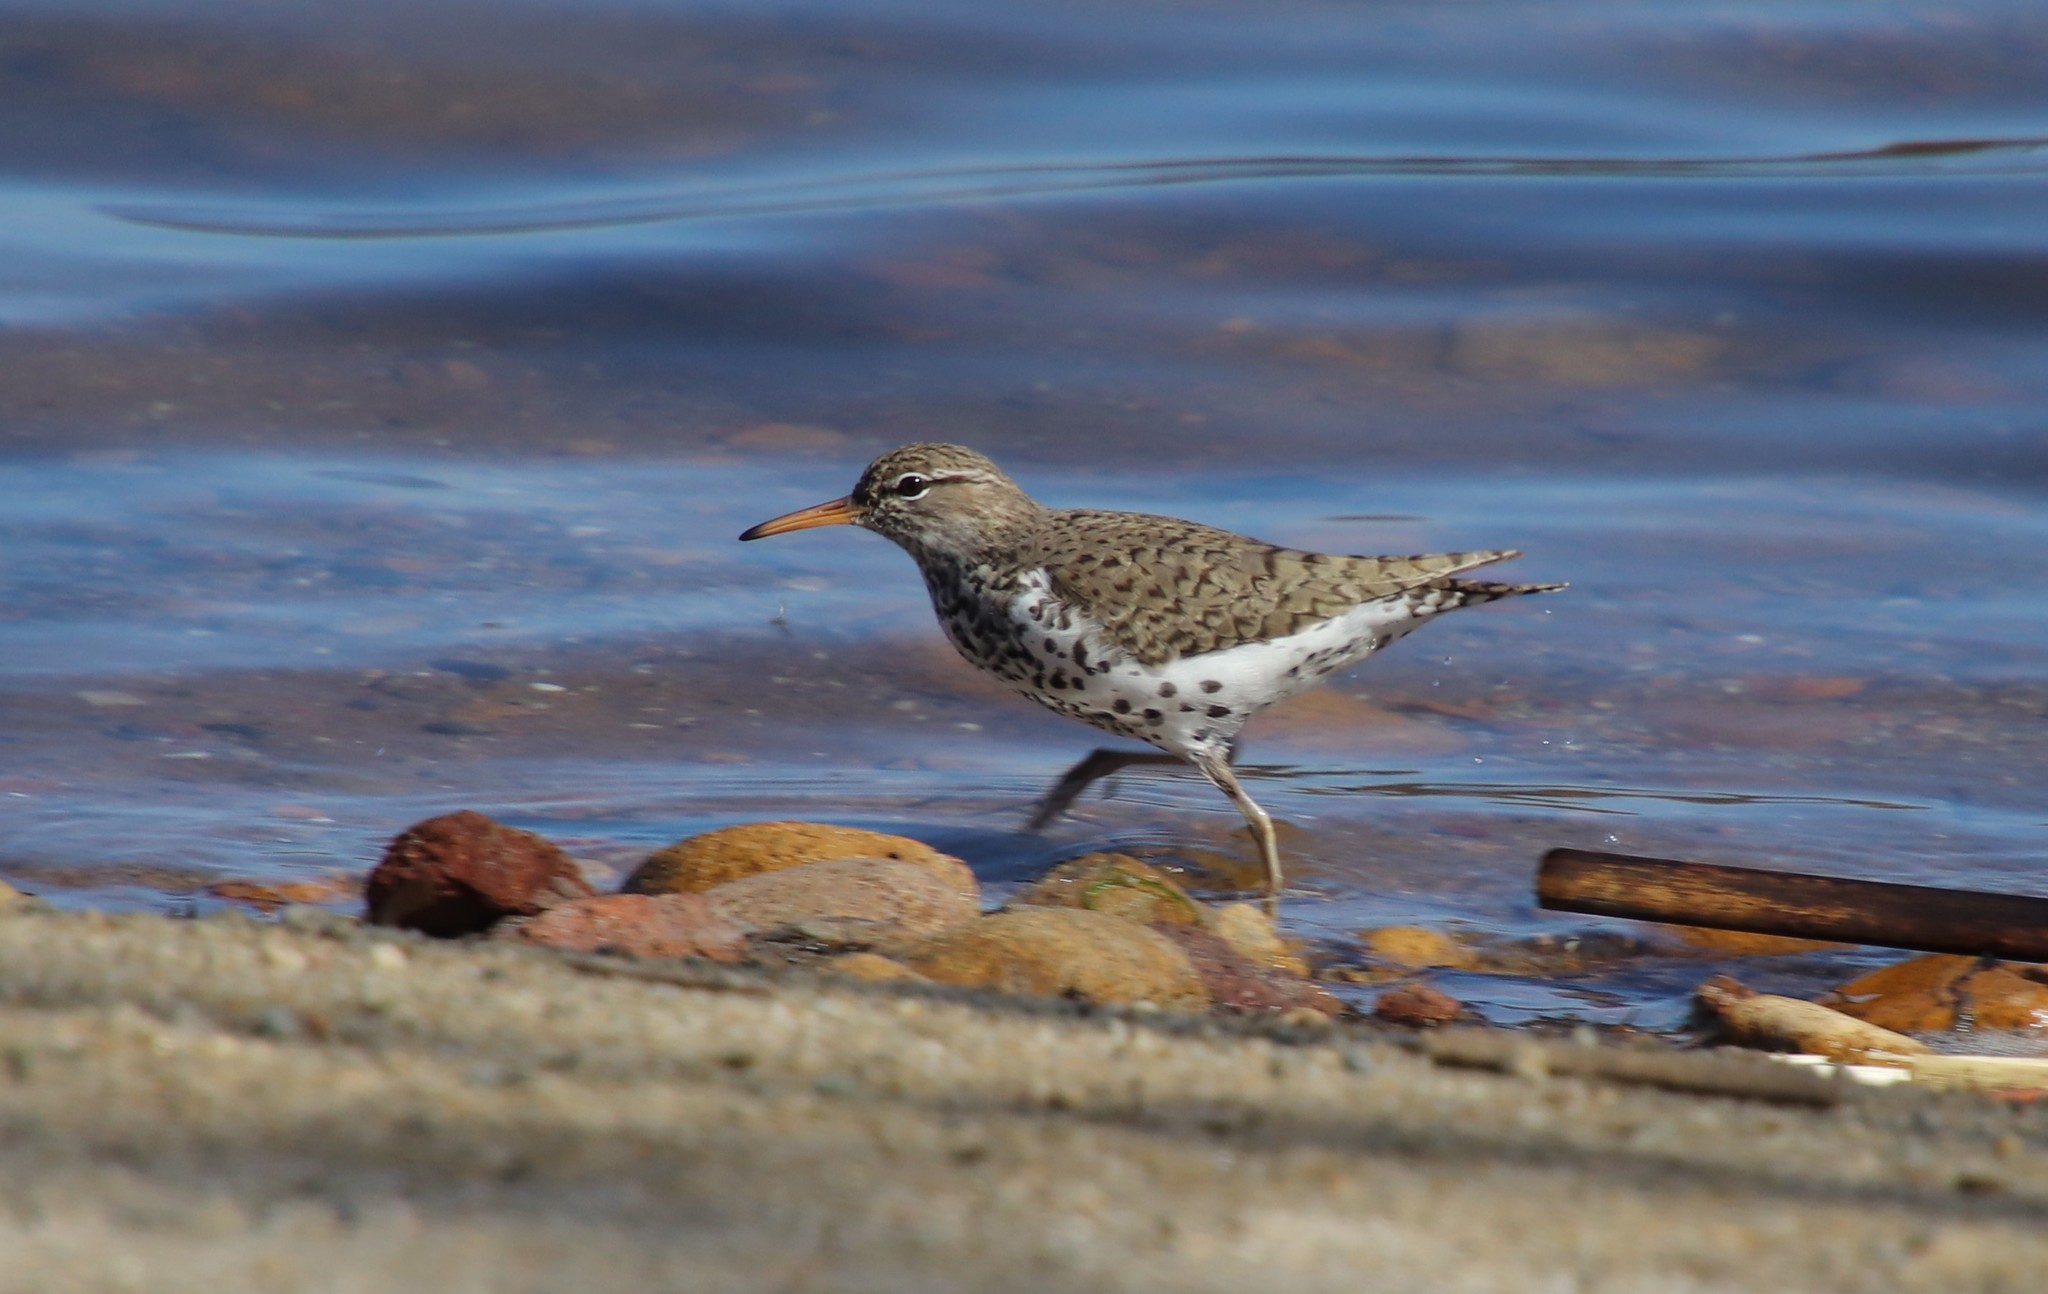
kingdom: Animalia
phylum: Chordata
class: Aves
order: Charadriiformes
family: Scolopacidae
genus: Actitis
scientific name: Actitis macularius
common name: Spotted sandpiper
